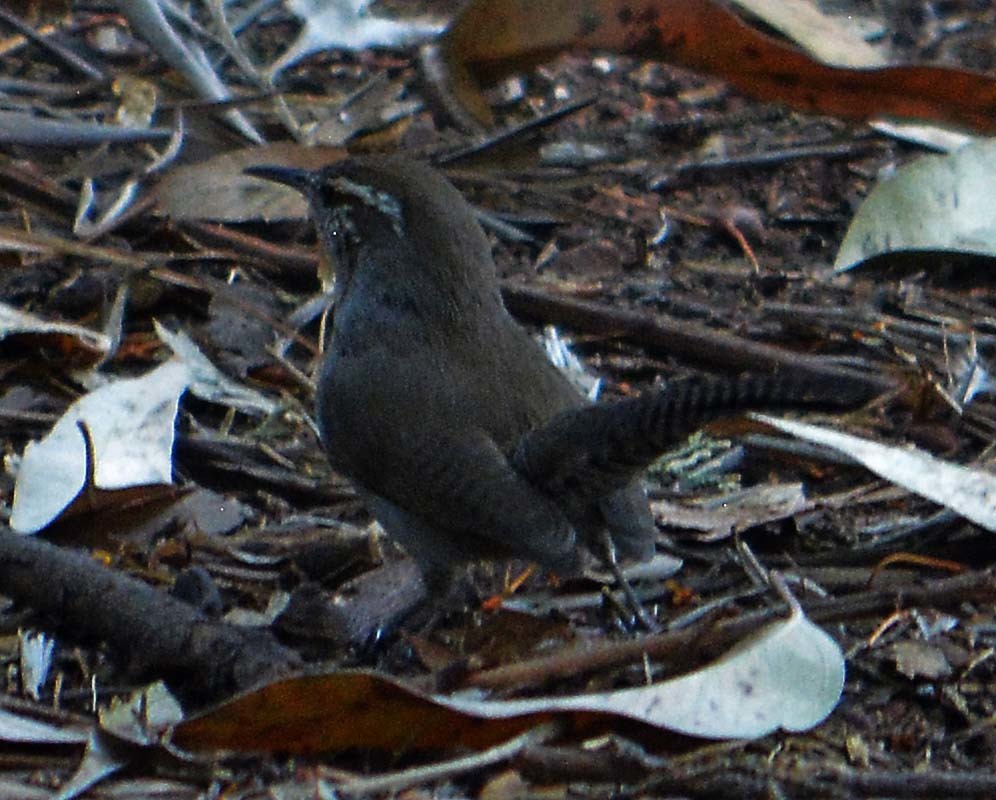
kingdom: Animalia
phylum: Chordata
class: Aves
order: Passeriformes
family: Troglodytidae
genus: Thryomanes
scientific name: Thryomanes bewickii
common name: Bewick's wren
